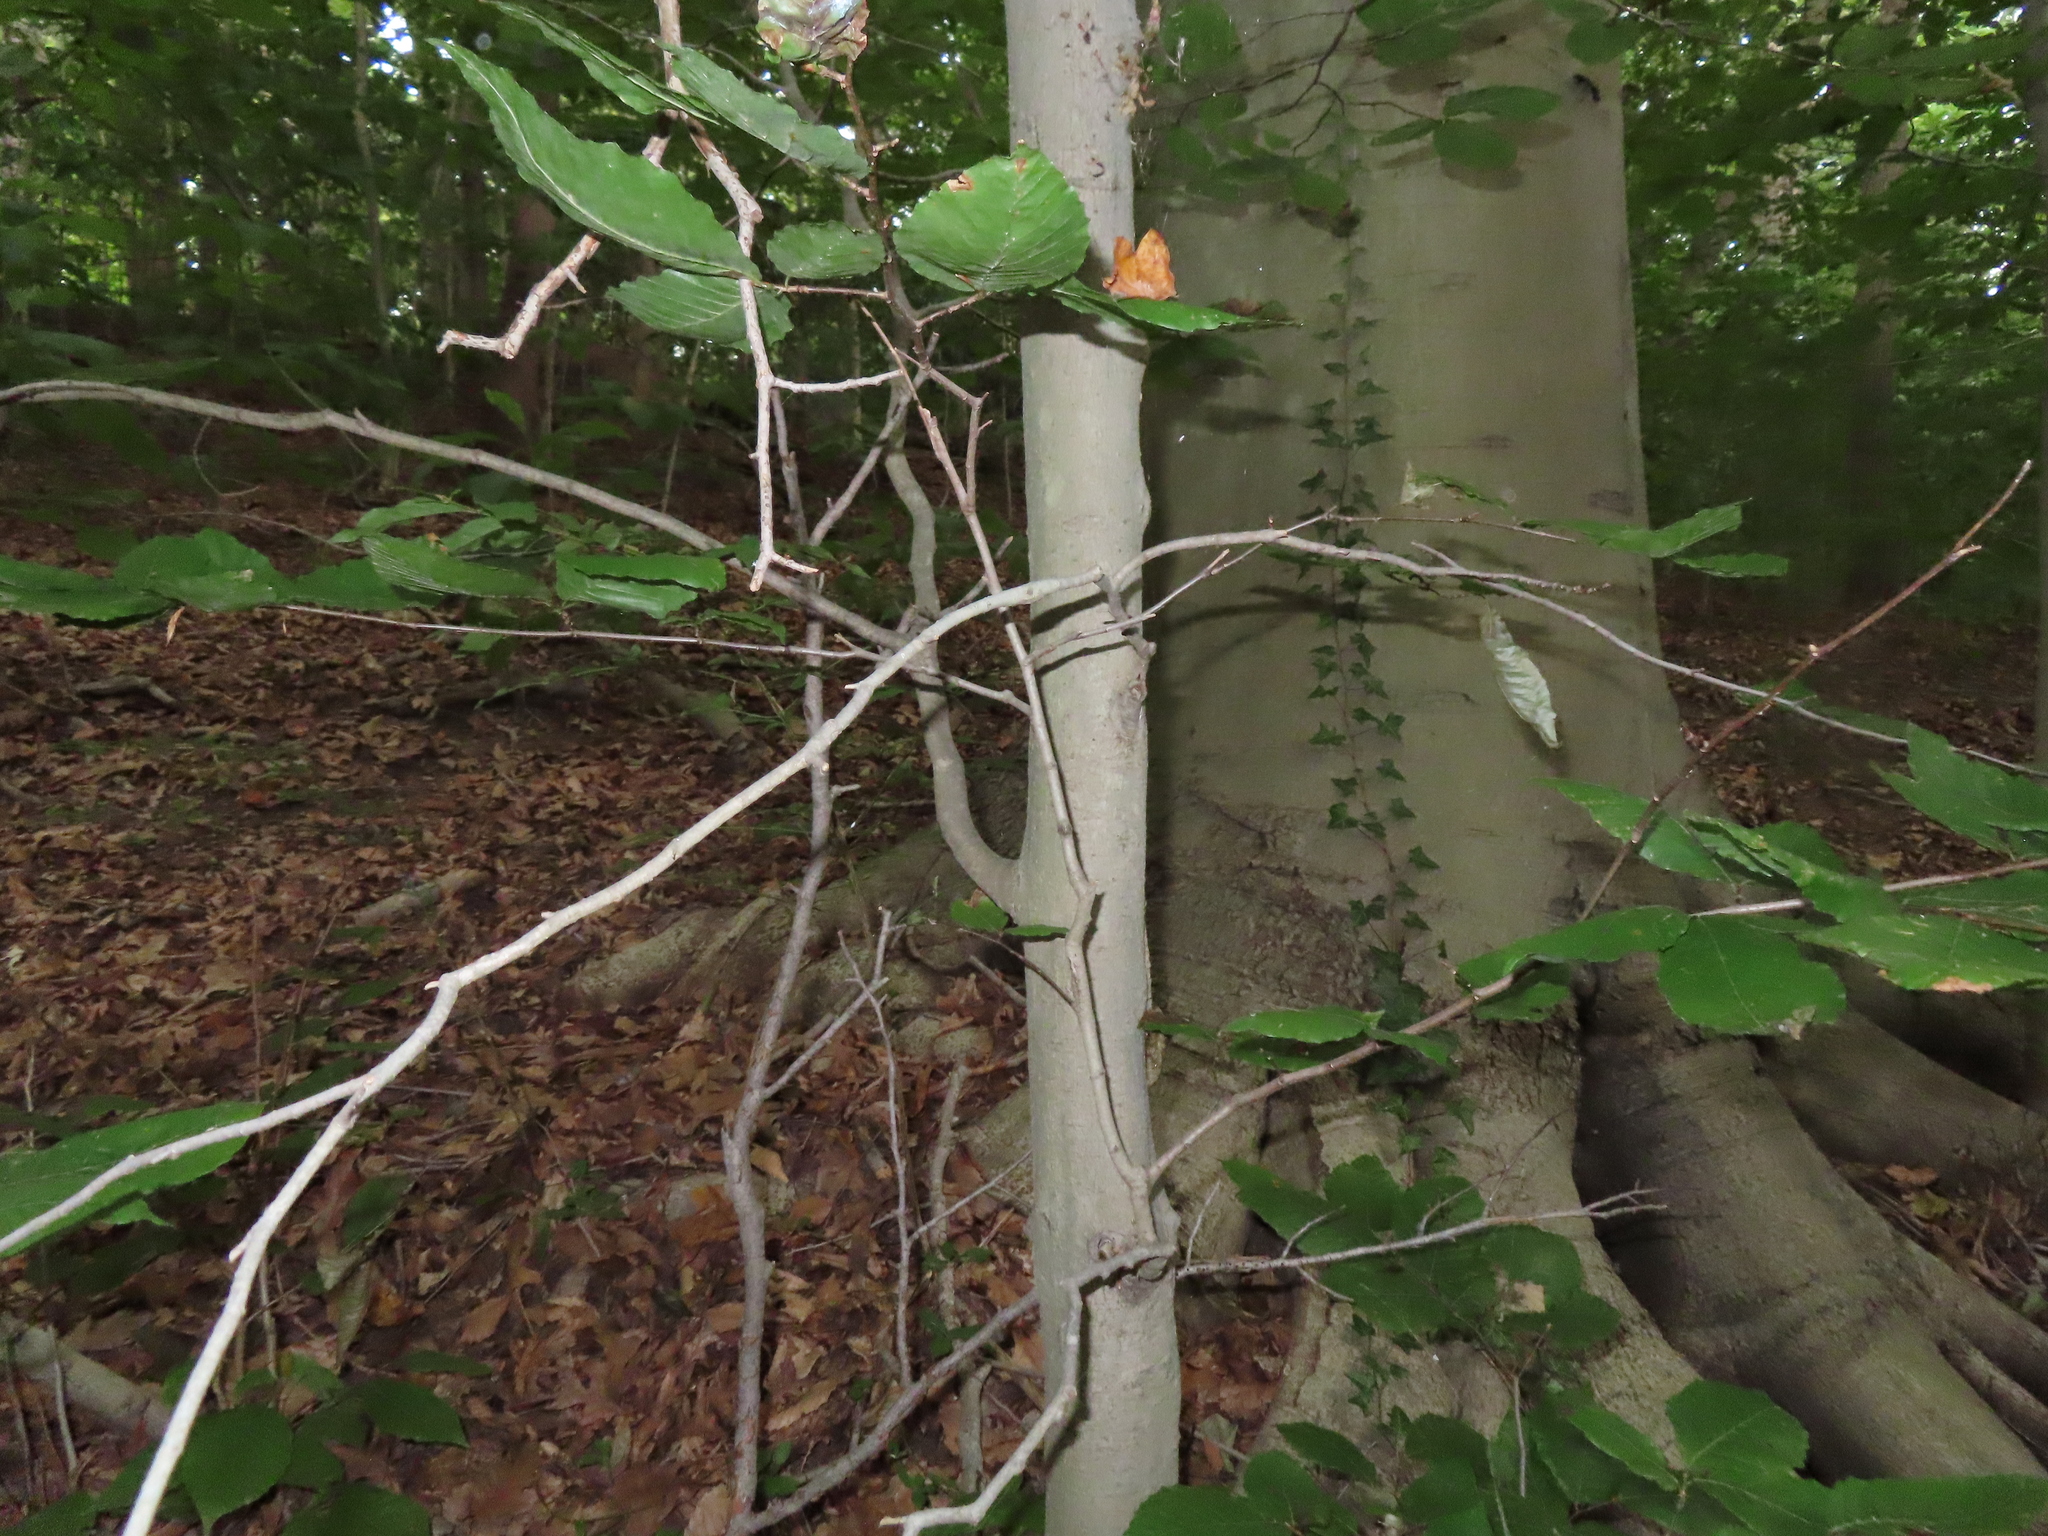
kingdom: Plantae
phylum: Tracheophyta
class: Magnoliopsida
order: Fagales
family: Fagaceae
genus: Fagus
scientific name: Fagus grandifolia
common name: American beech
